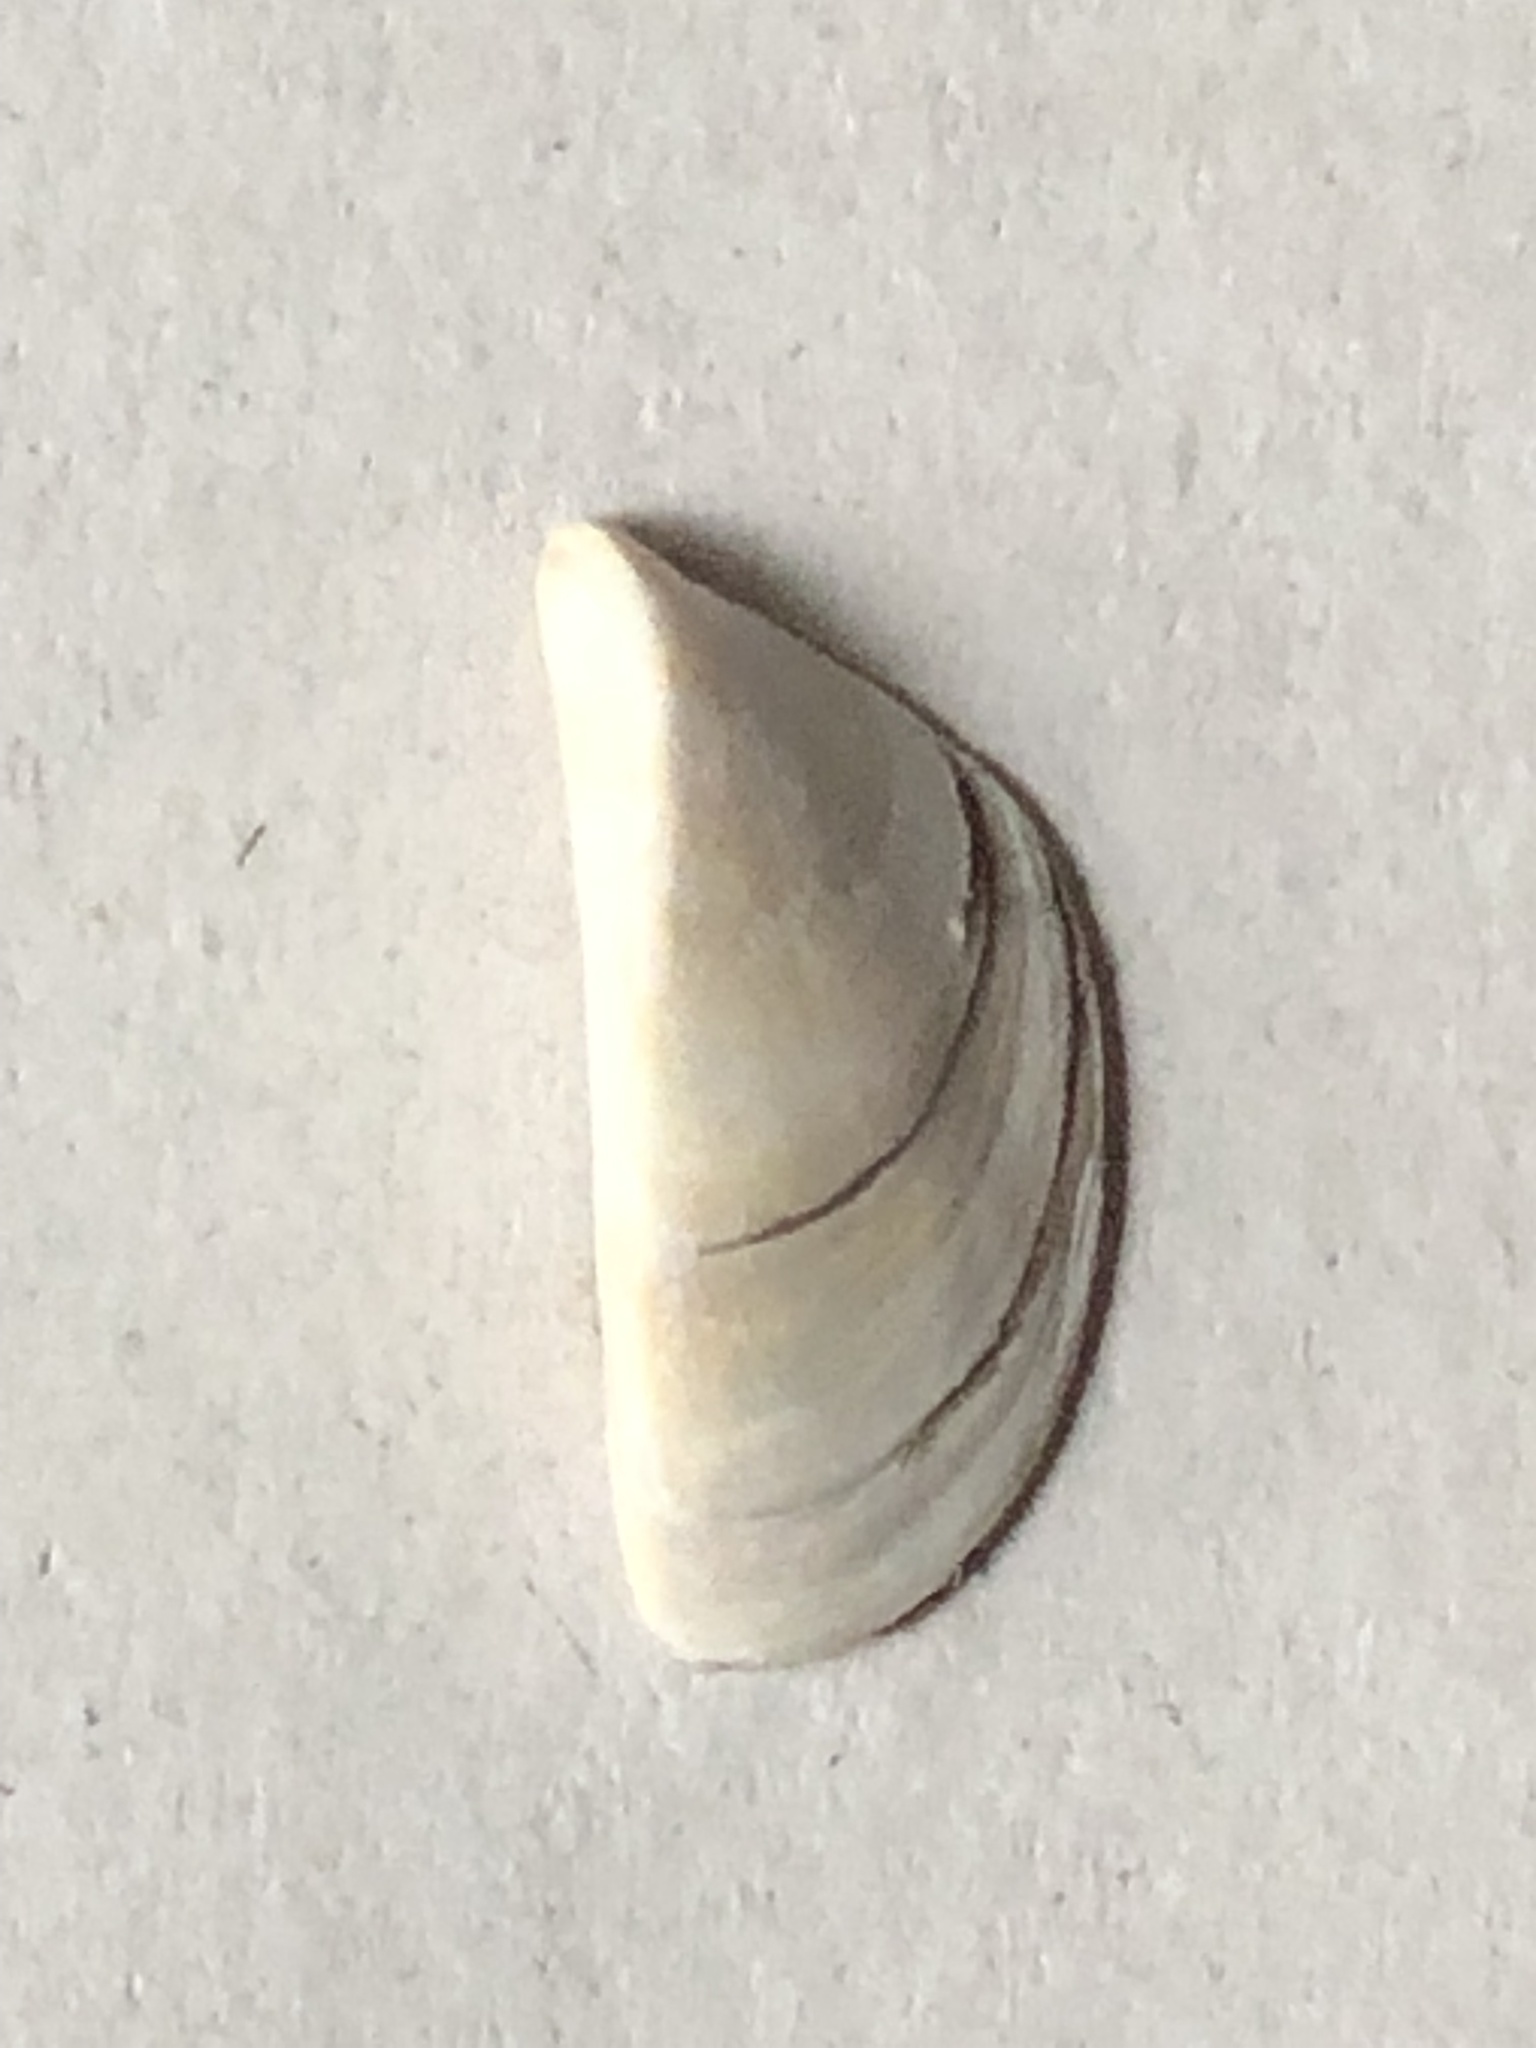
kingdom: Animalia
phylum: Mollusca
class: Bivalvia
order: Myida
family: Dreissenidae
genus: Dreissena
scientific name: Dreissena polymorpha
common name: Zebra mussel
